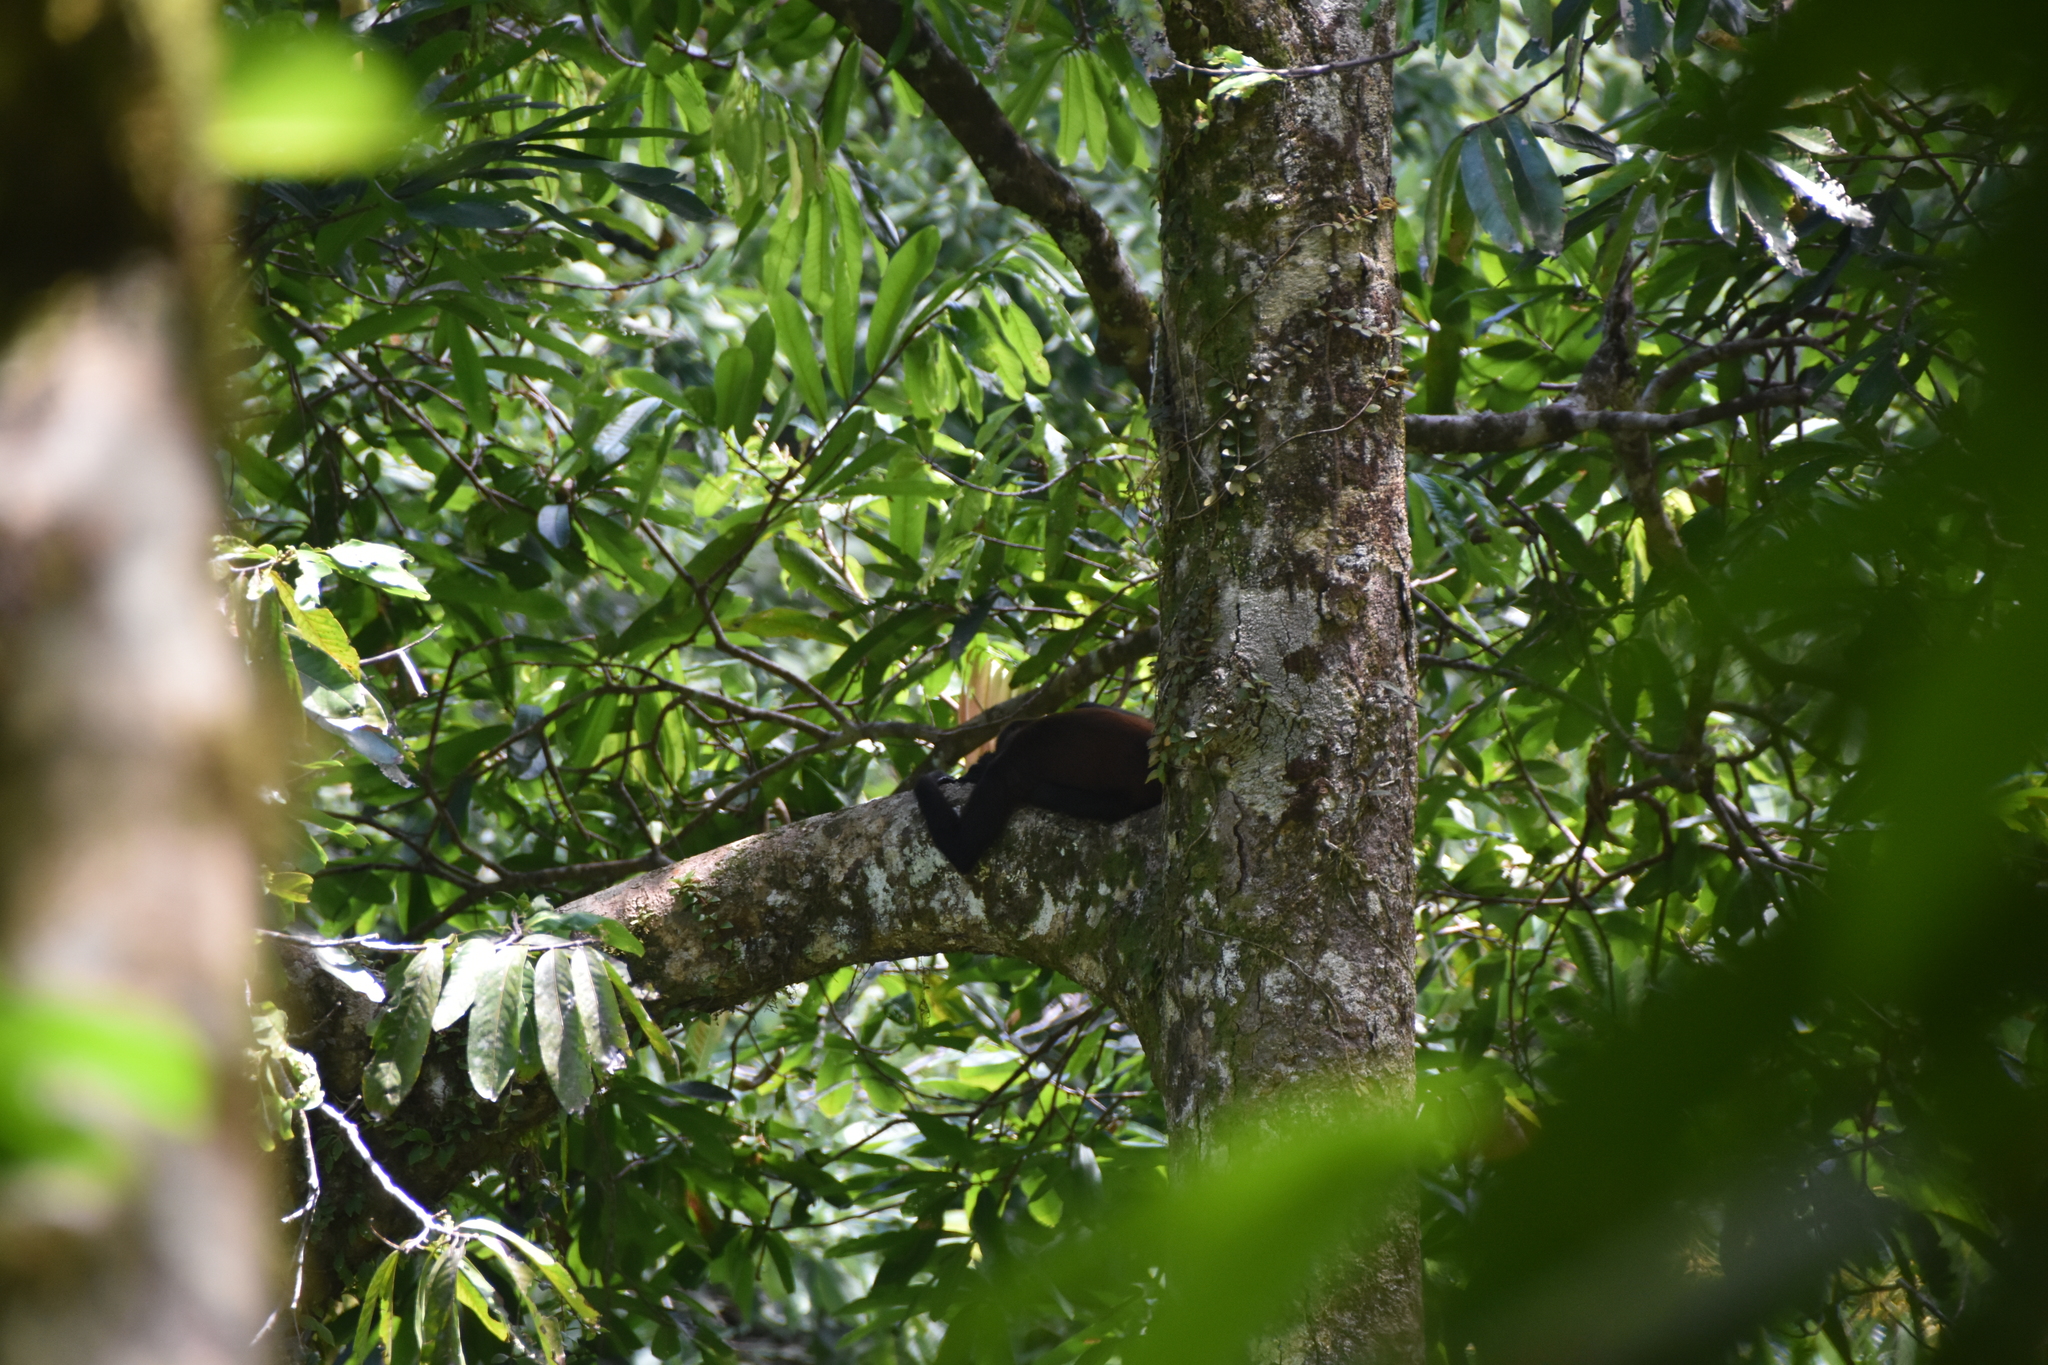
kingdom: Animalia
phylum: Chordata
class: Mammalia
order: Primates
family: Atelidae
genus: Ateles
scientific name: Ateles geoffroyi
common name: Black-handed spider monkey
